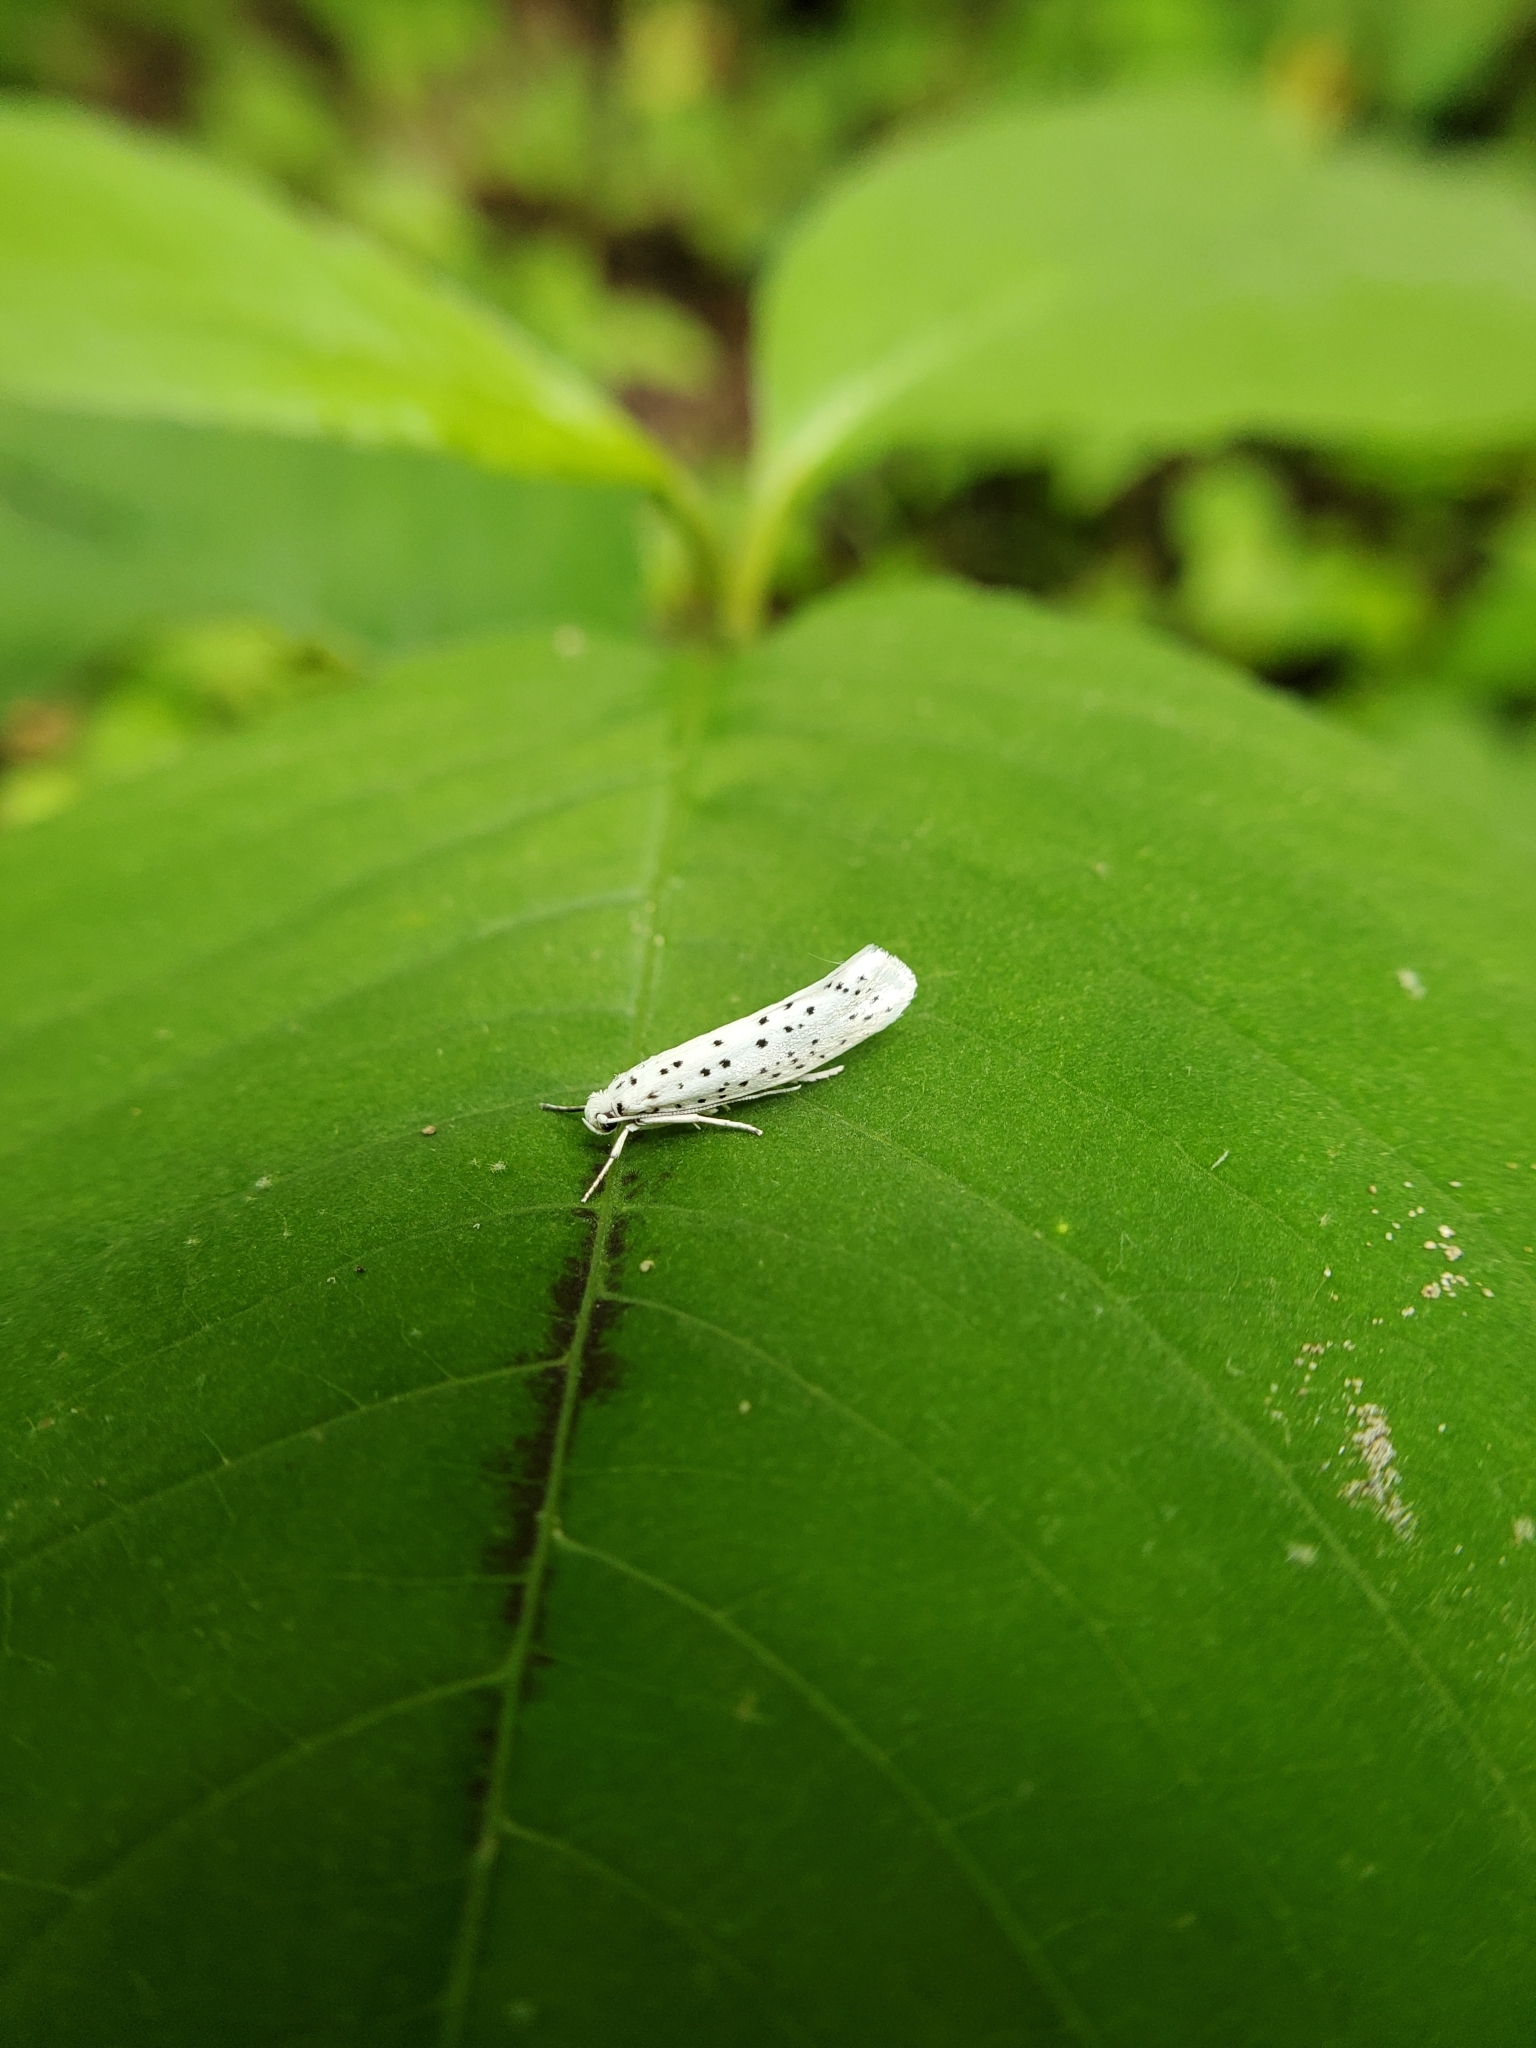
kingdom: Animalia
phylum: Arthropoda
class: Insecta
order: Lepidoptera
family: Yponomeutidae
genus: Yponomeuta
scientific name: Yponomeuta multipunctella
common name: American ermine moth
